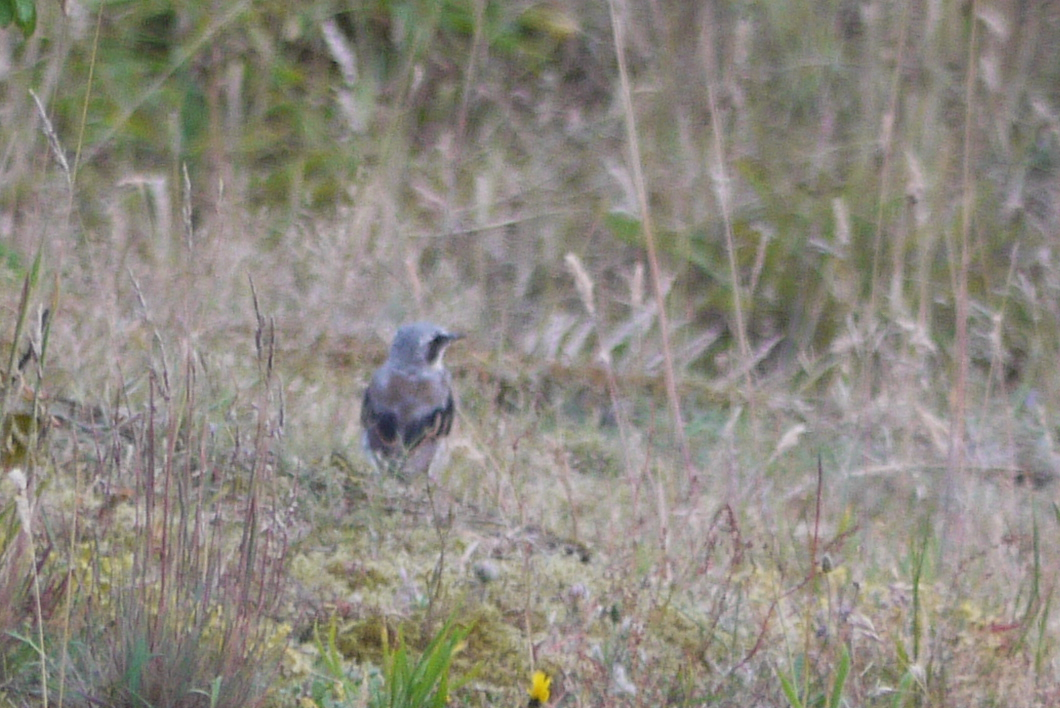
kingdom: Animalia
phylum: Chordata
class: Aves
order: Passeriformes
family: Muscicapidae
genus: Oenanthe
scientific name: Oenanthe oenanthe
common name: Northern wheatear
